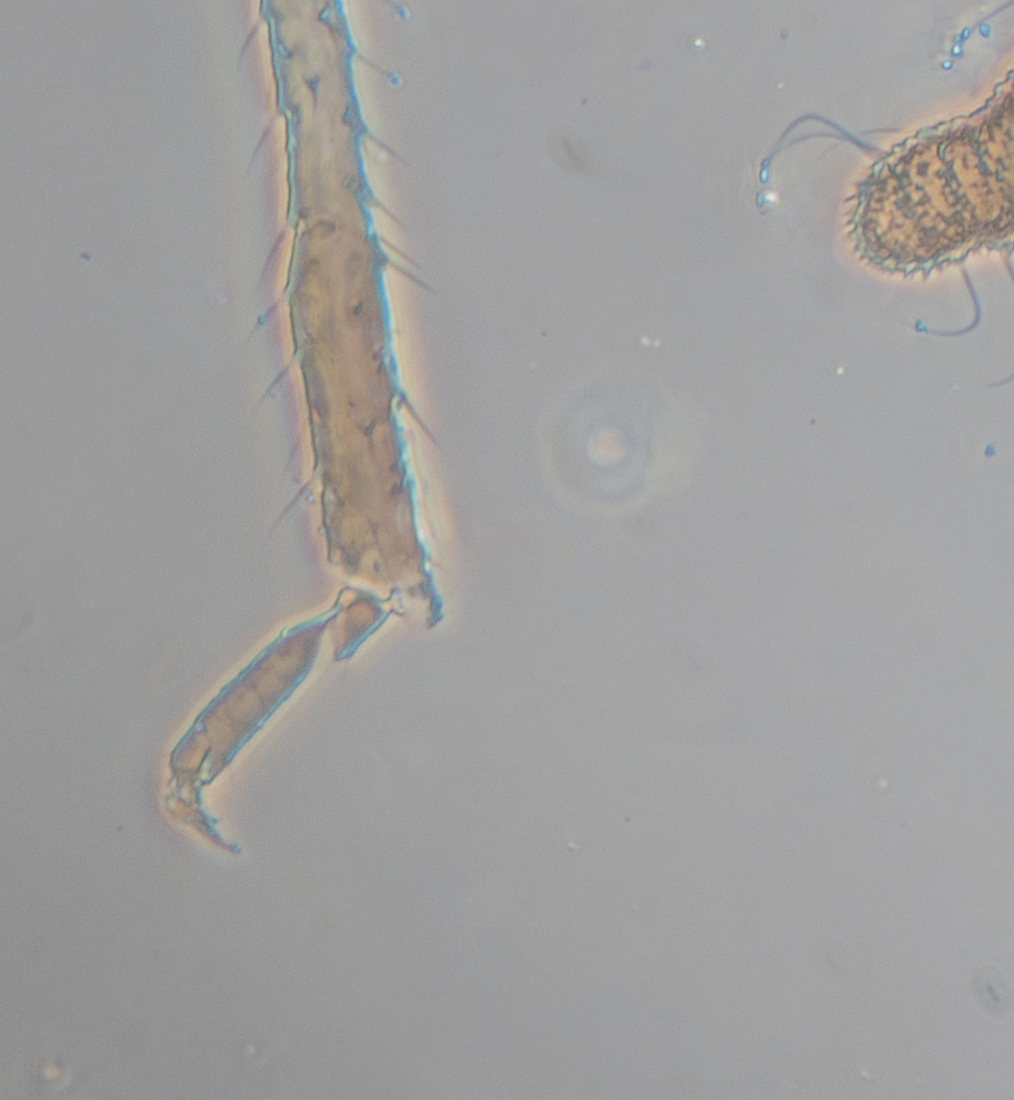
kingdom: Animalia
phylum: Arthropoda
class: Insecta
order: Hemiptera
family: Aphididae
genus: Aphis
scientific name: Aphis gossypii
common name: Melon aphid
